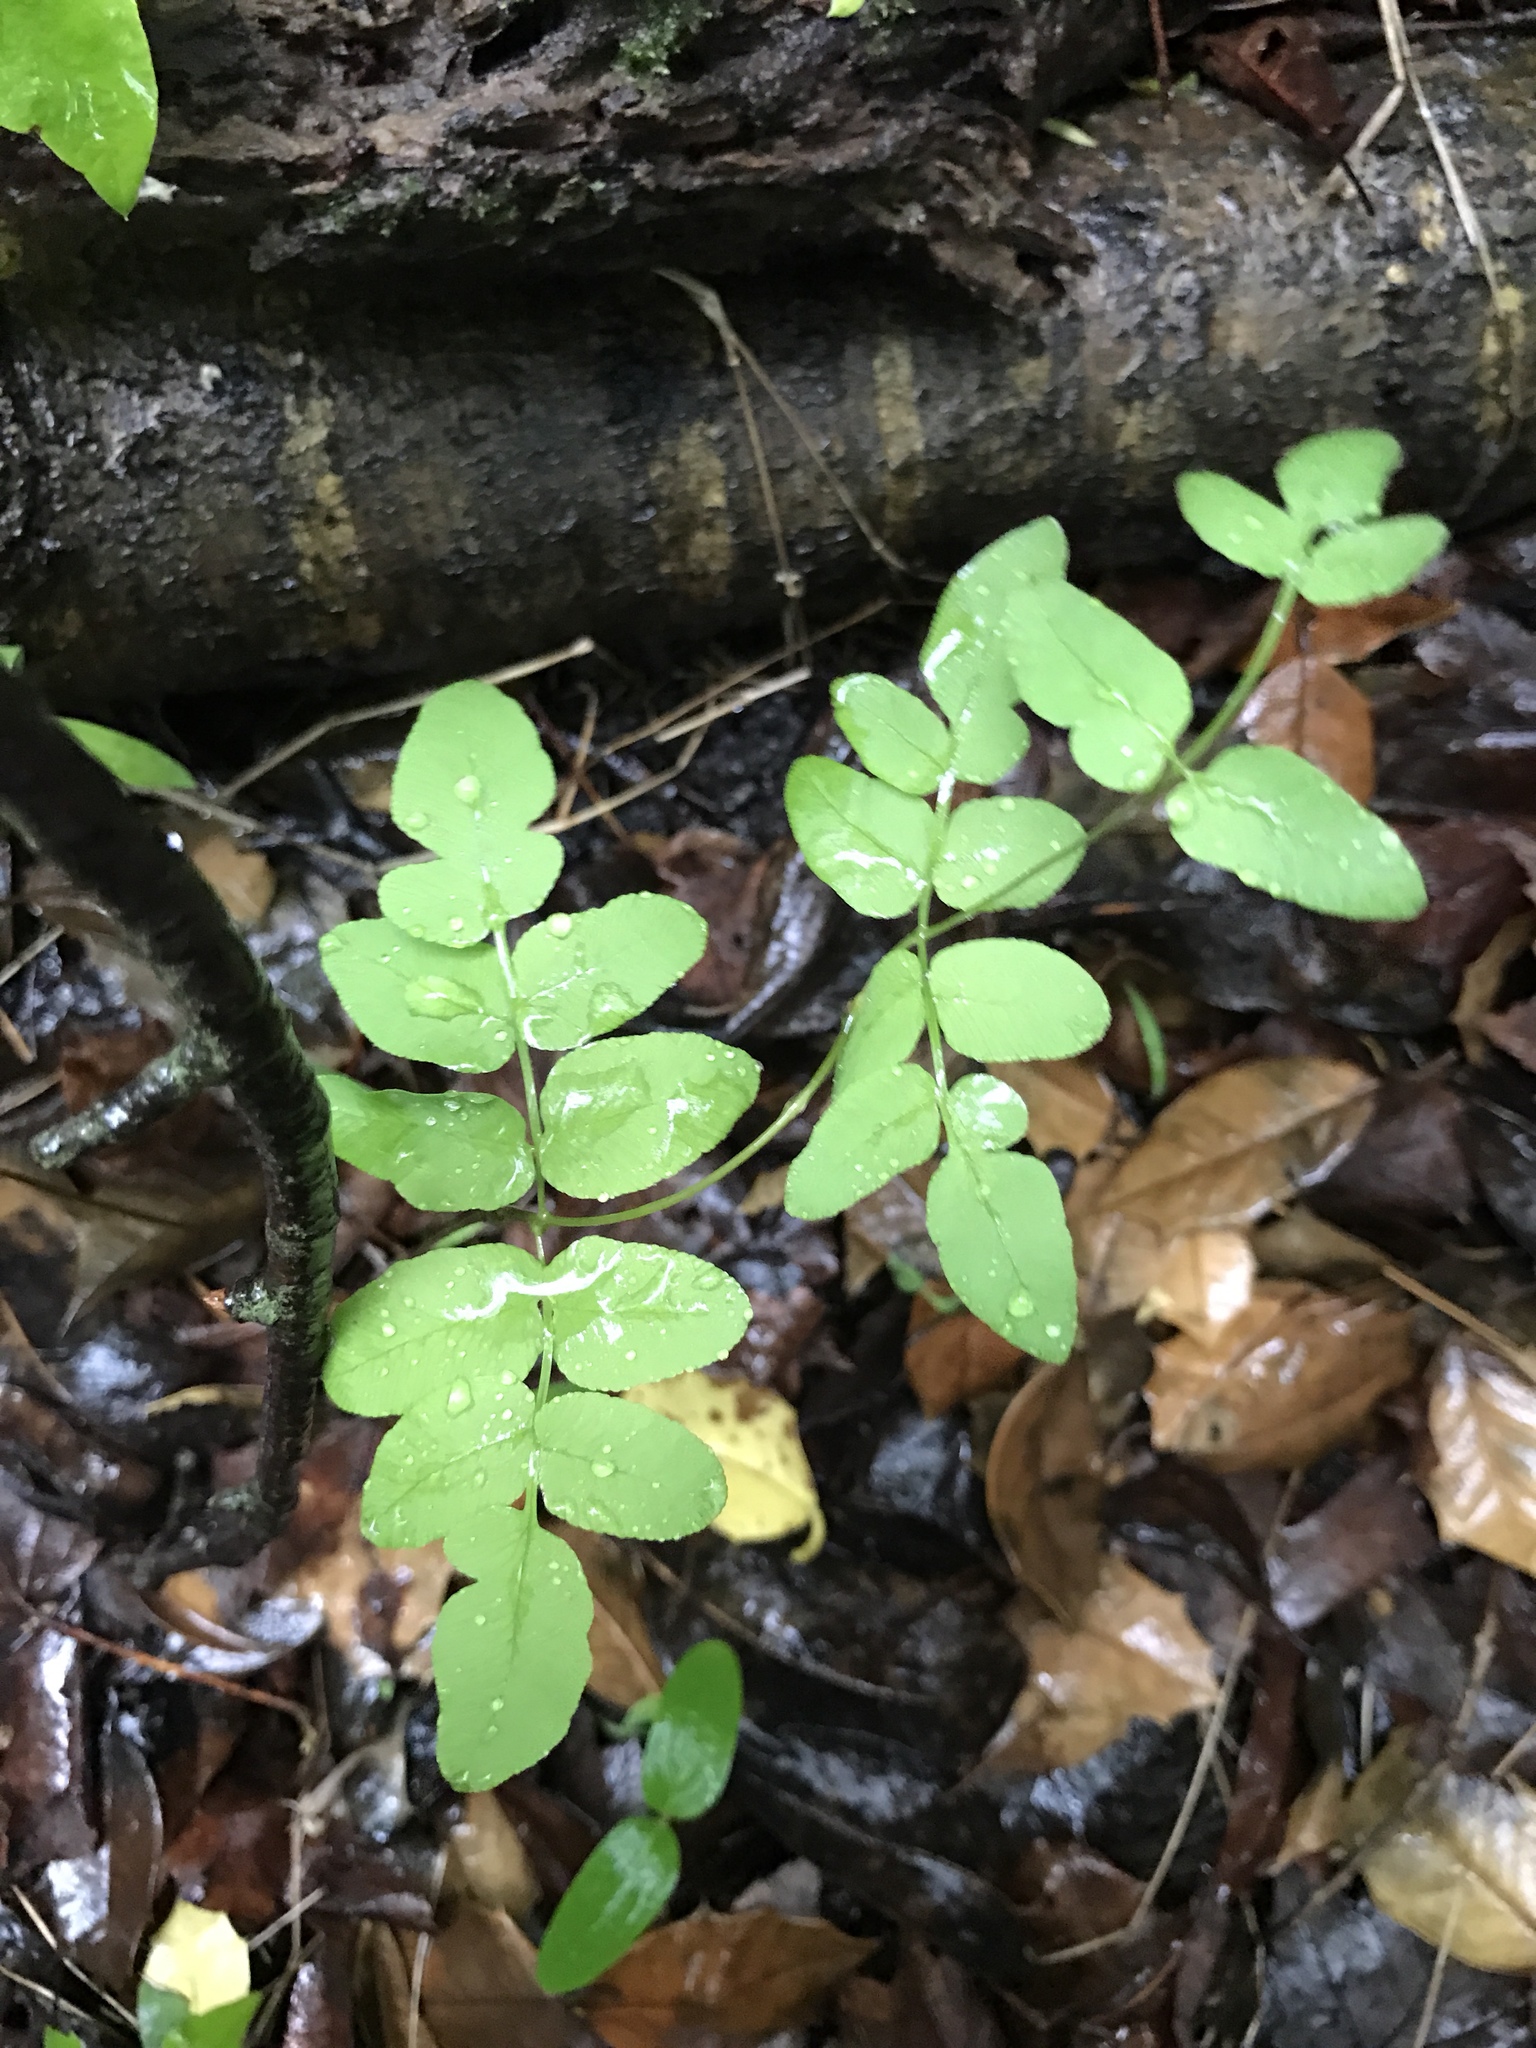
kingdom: Plantae
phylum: Tracheophyta
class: Polypodiopsida
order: Osmundales
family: Osmundaceae
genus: Osmunda
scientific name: Osmunda spectabilis
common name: American royal fern
